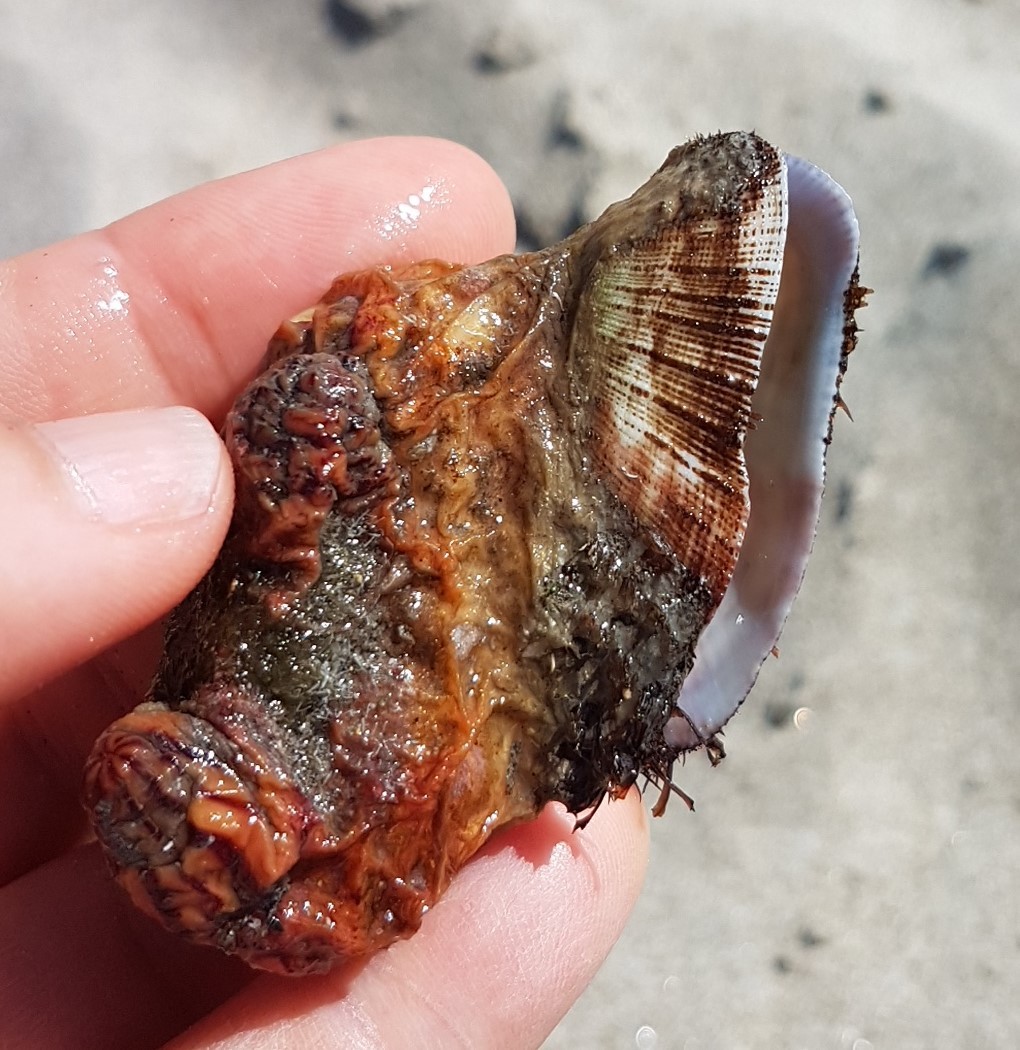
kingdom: Animalia
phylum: Mollusca
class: Bivalvia
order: Arcida
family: Arcidae
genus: Barbatia
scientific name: Barbatia barbata
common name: Bearded ark
